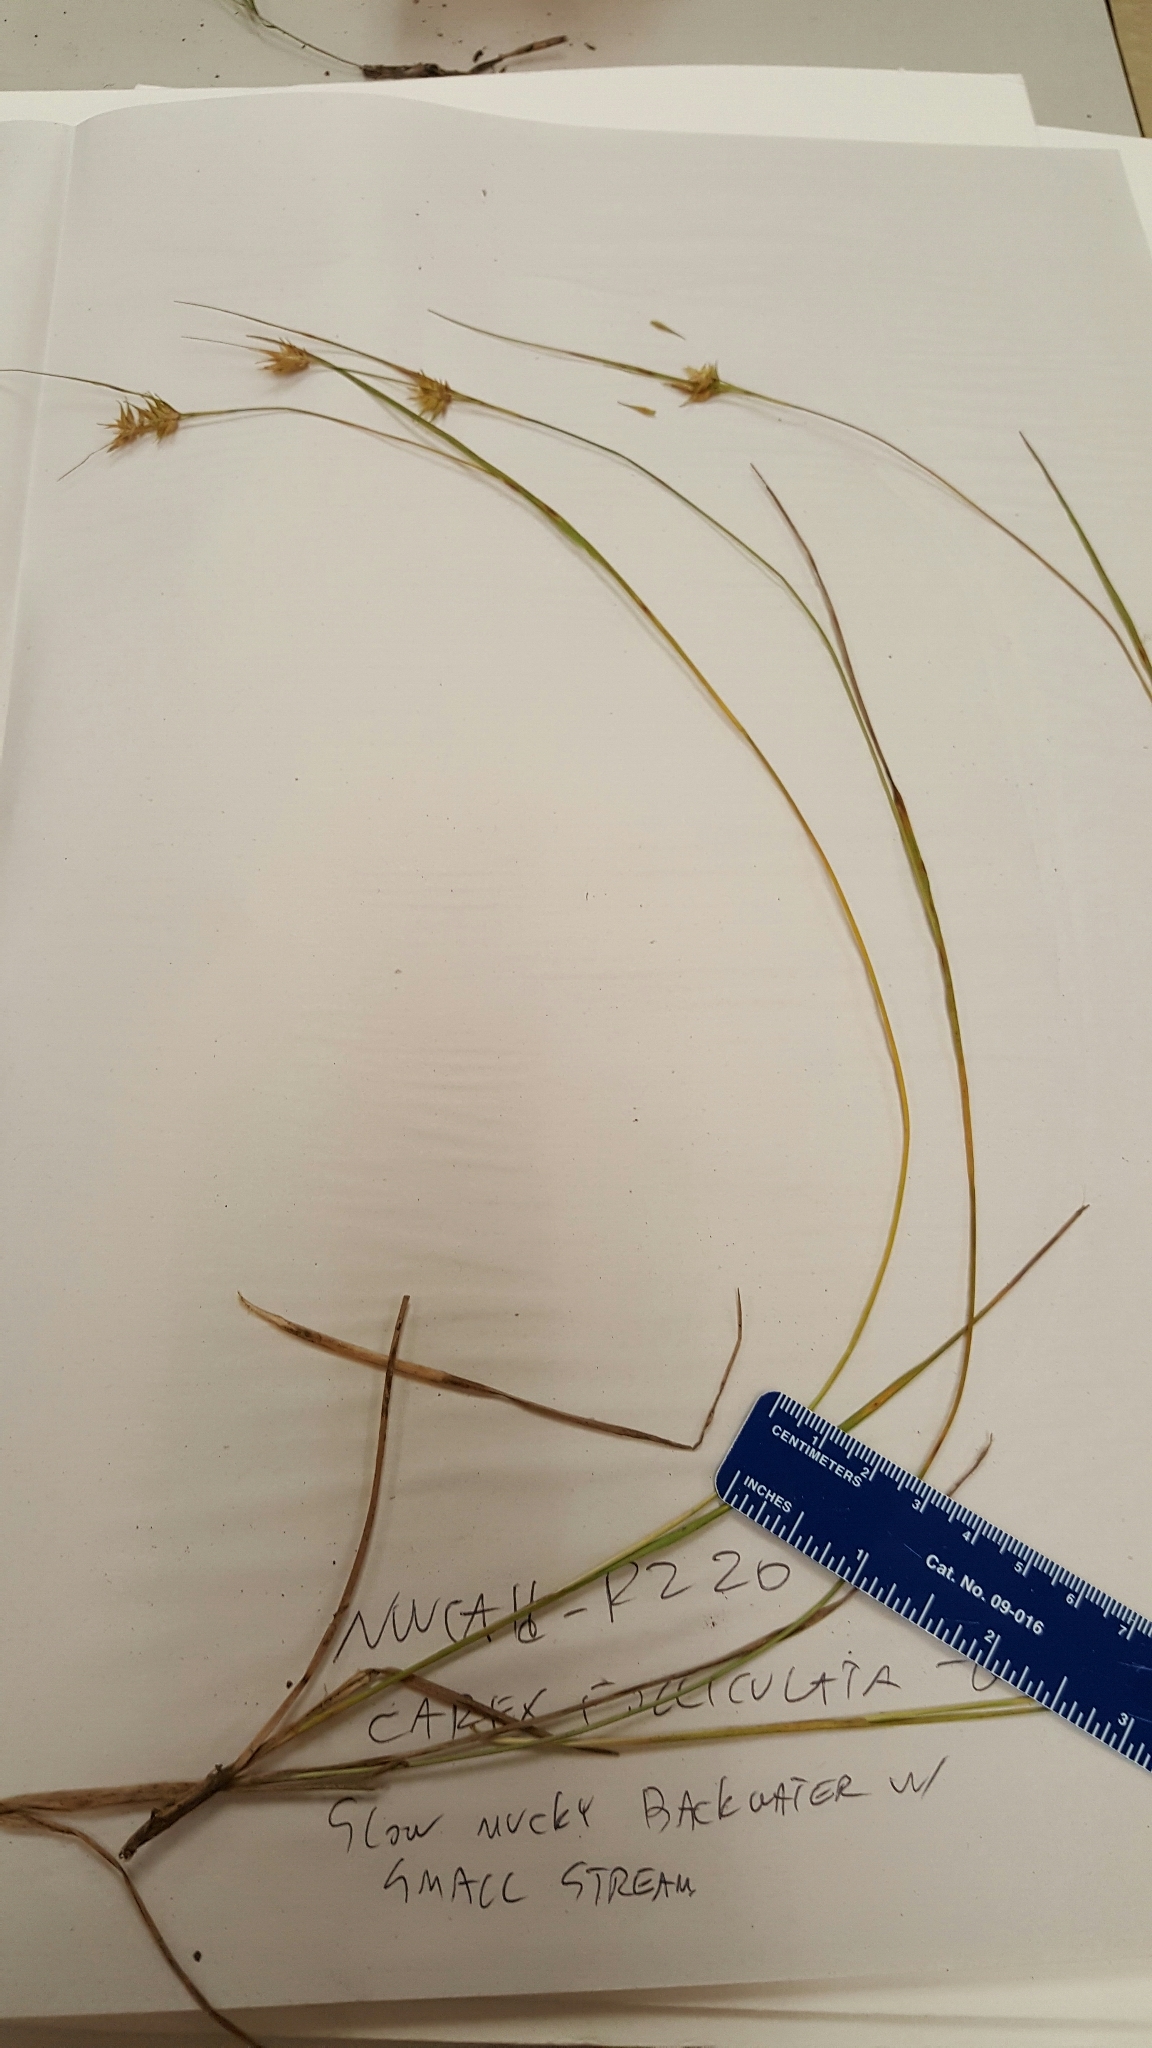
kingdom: Plantae
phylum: Tracheophyta
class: Liliopsida
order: Poales
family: Cyperaceae
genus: Carex
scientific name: Carex michauxiana
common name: Michaux's sedge
